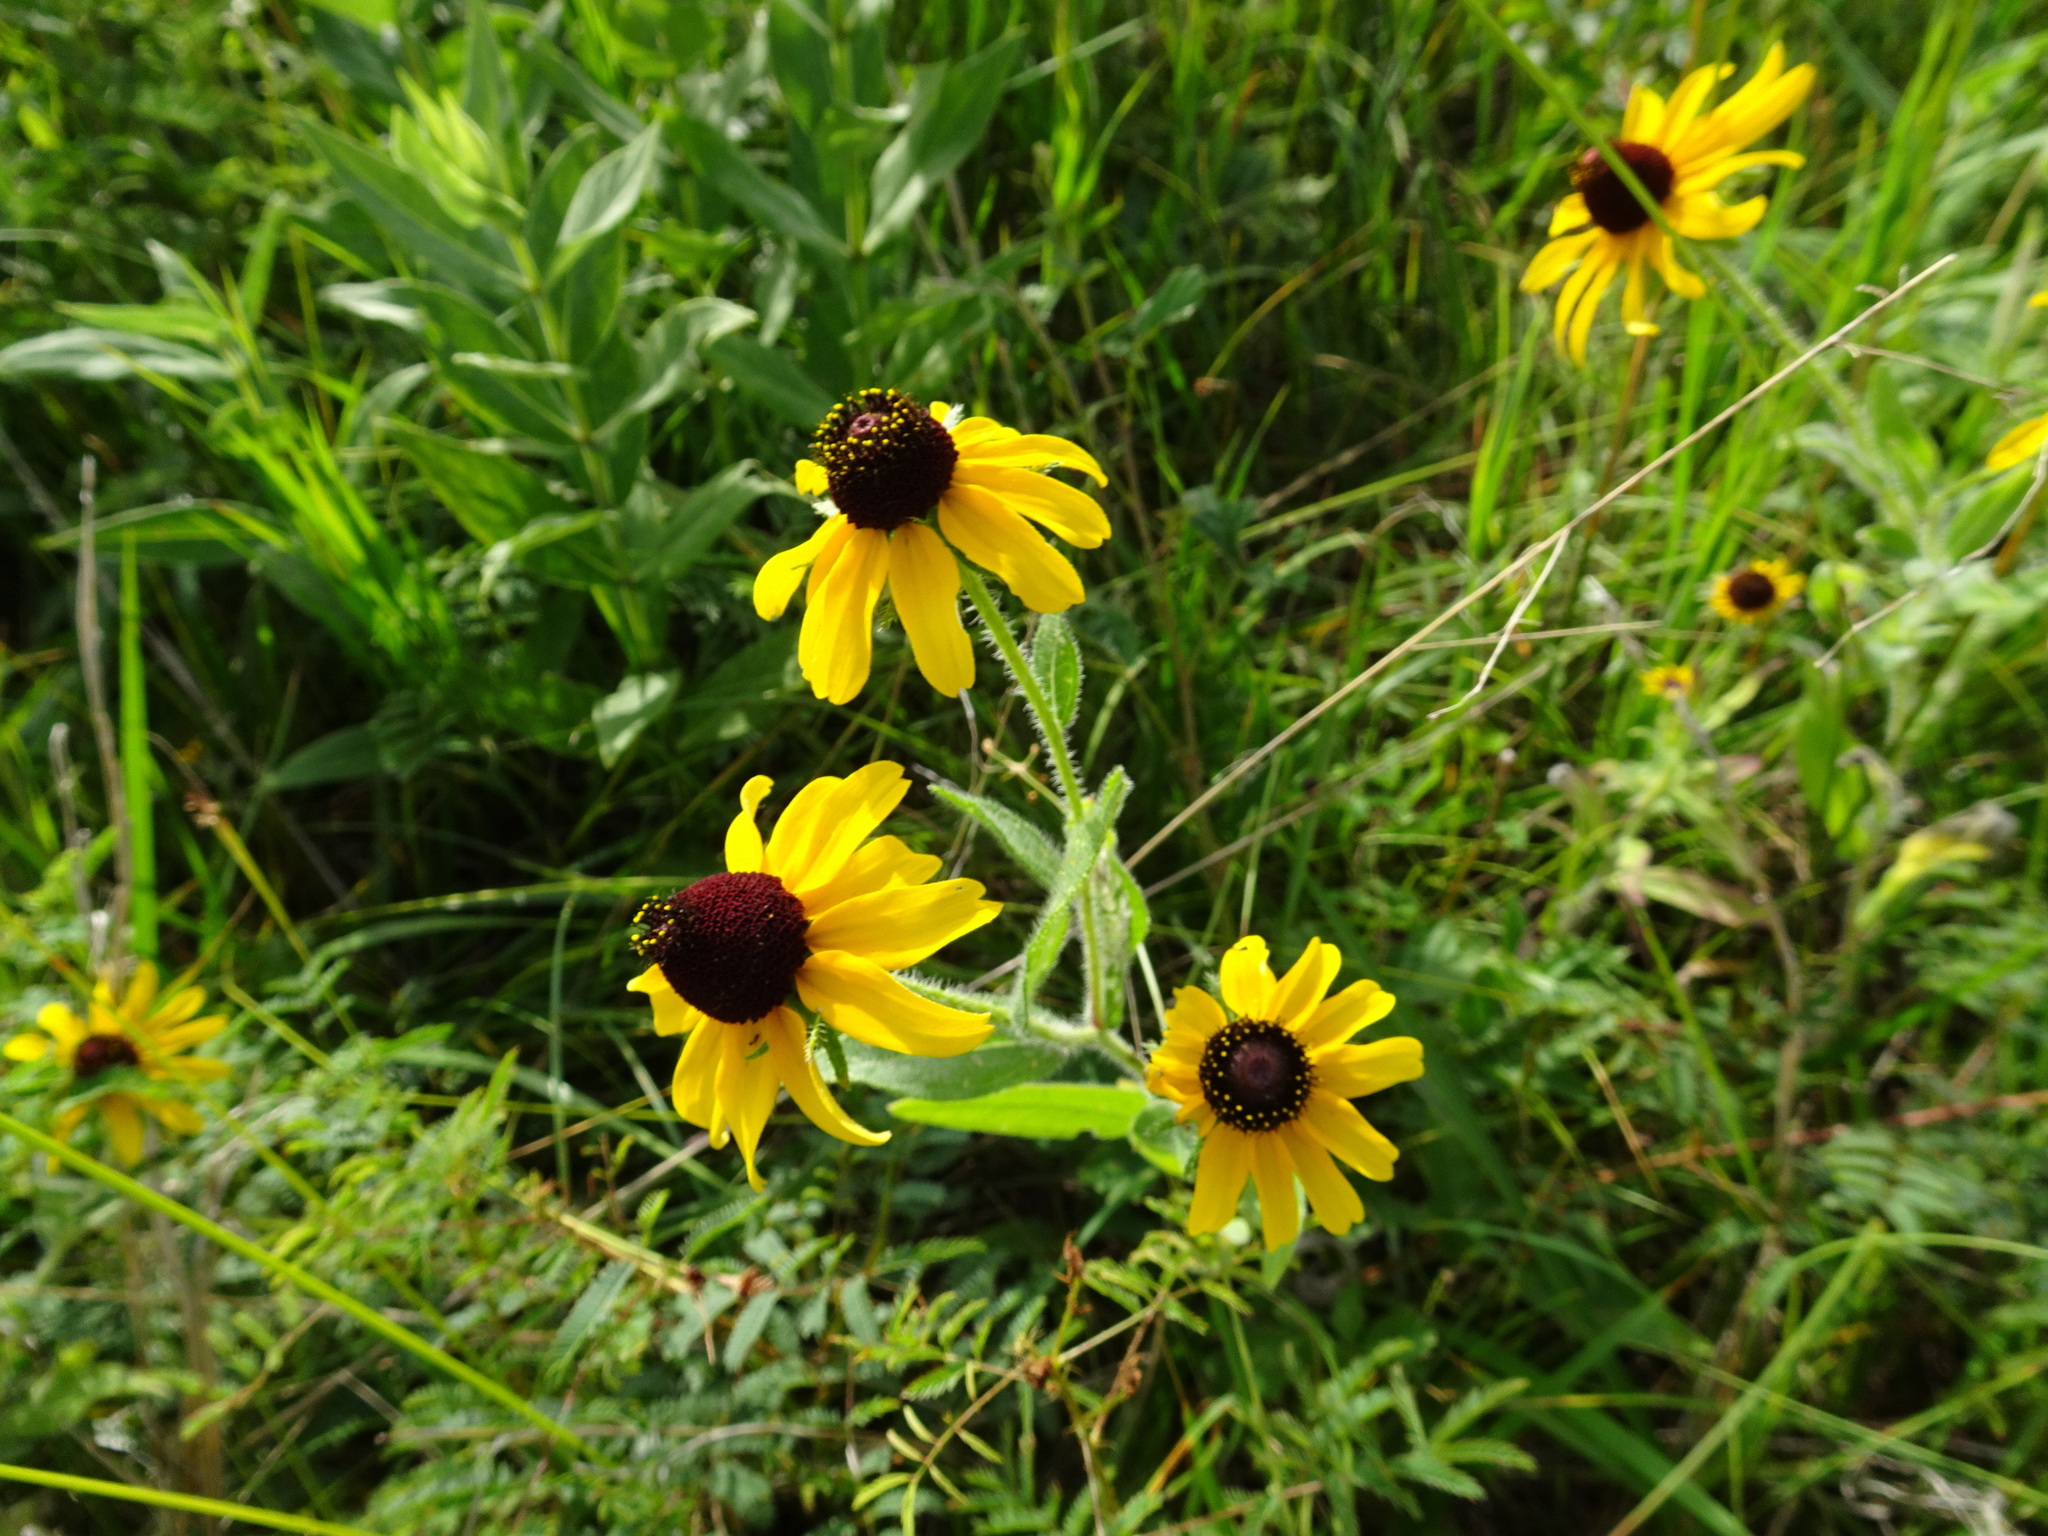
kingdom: Plantae
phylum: Tracheophyta
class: Magnoliopsida
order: Asterales
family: Asteraceae
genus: Rudbeckia
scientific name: Rudbeckia hirta
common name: Black-eyed-susan
